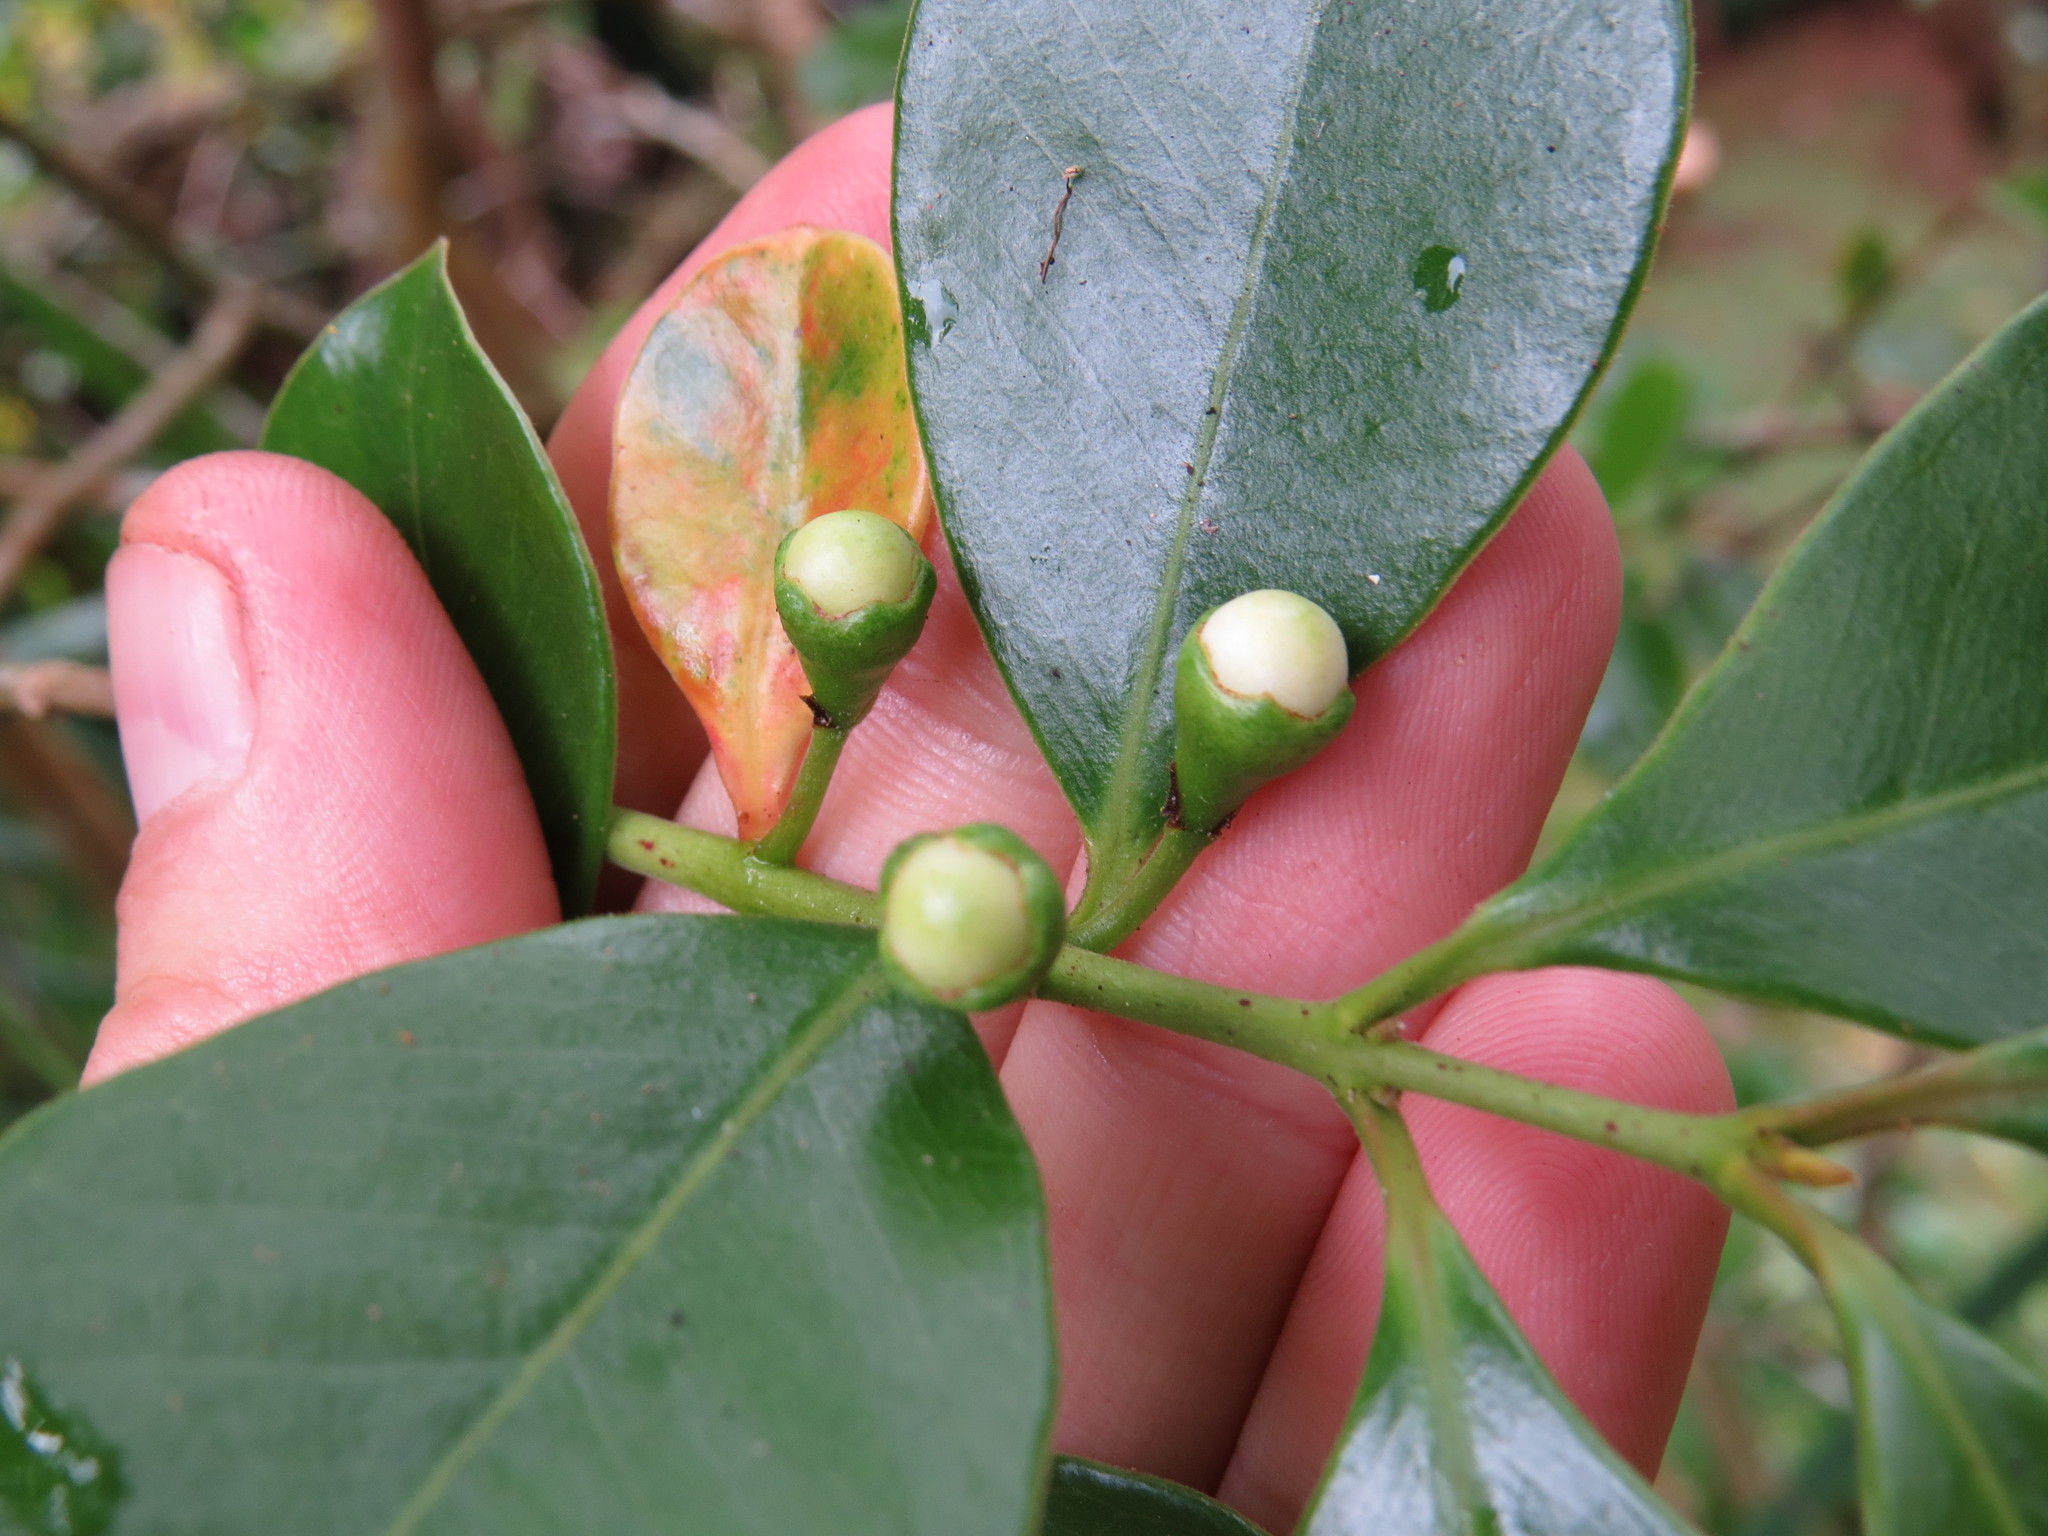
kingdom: Plantae
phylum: Tracheophyta
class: Magnoliopsida
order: Myrtales
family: Myrtaceae
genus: Psidium
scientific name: Psidium cattleianum
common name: Strawberry guava
